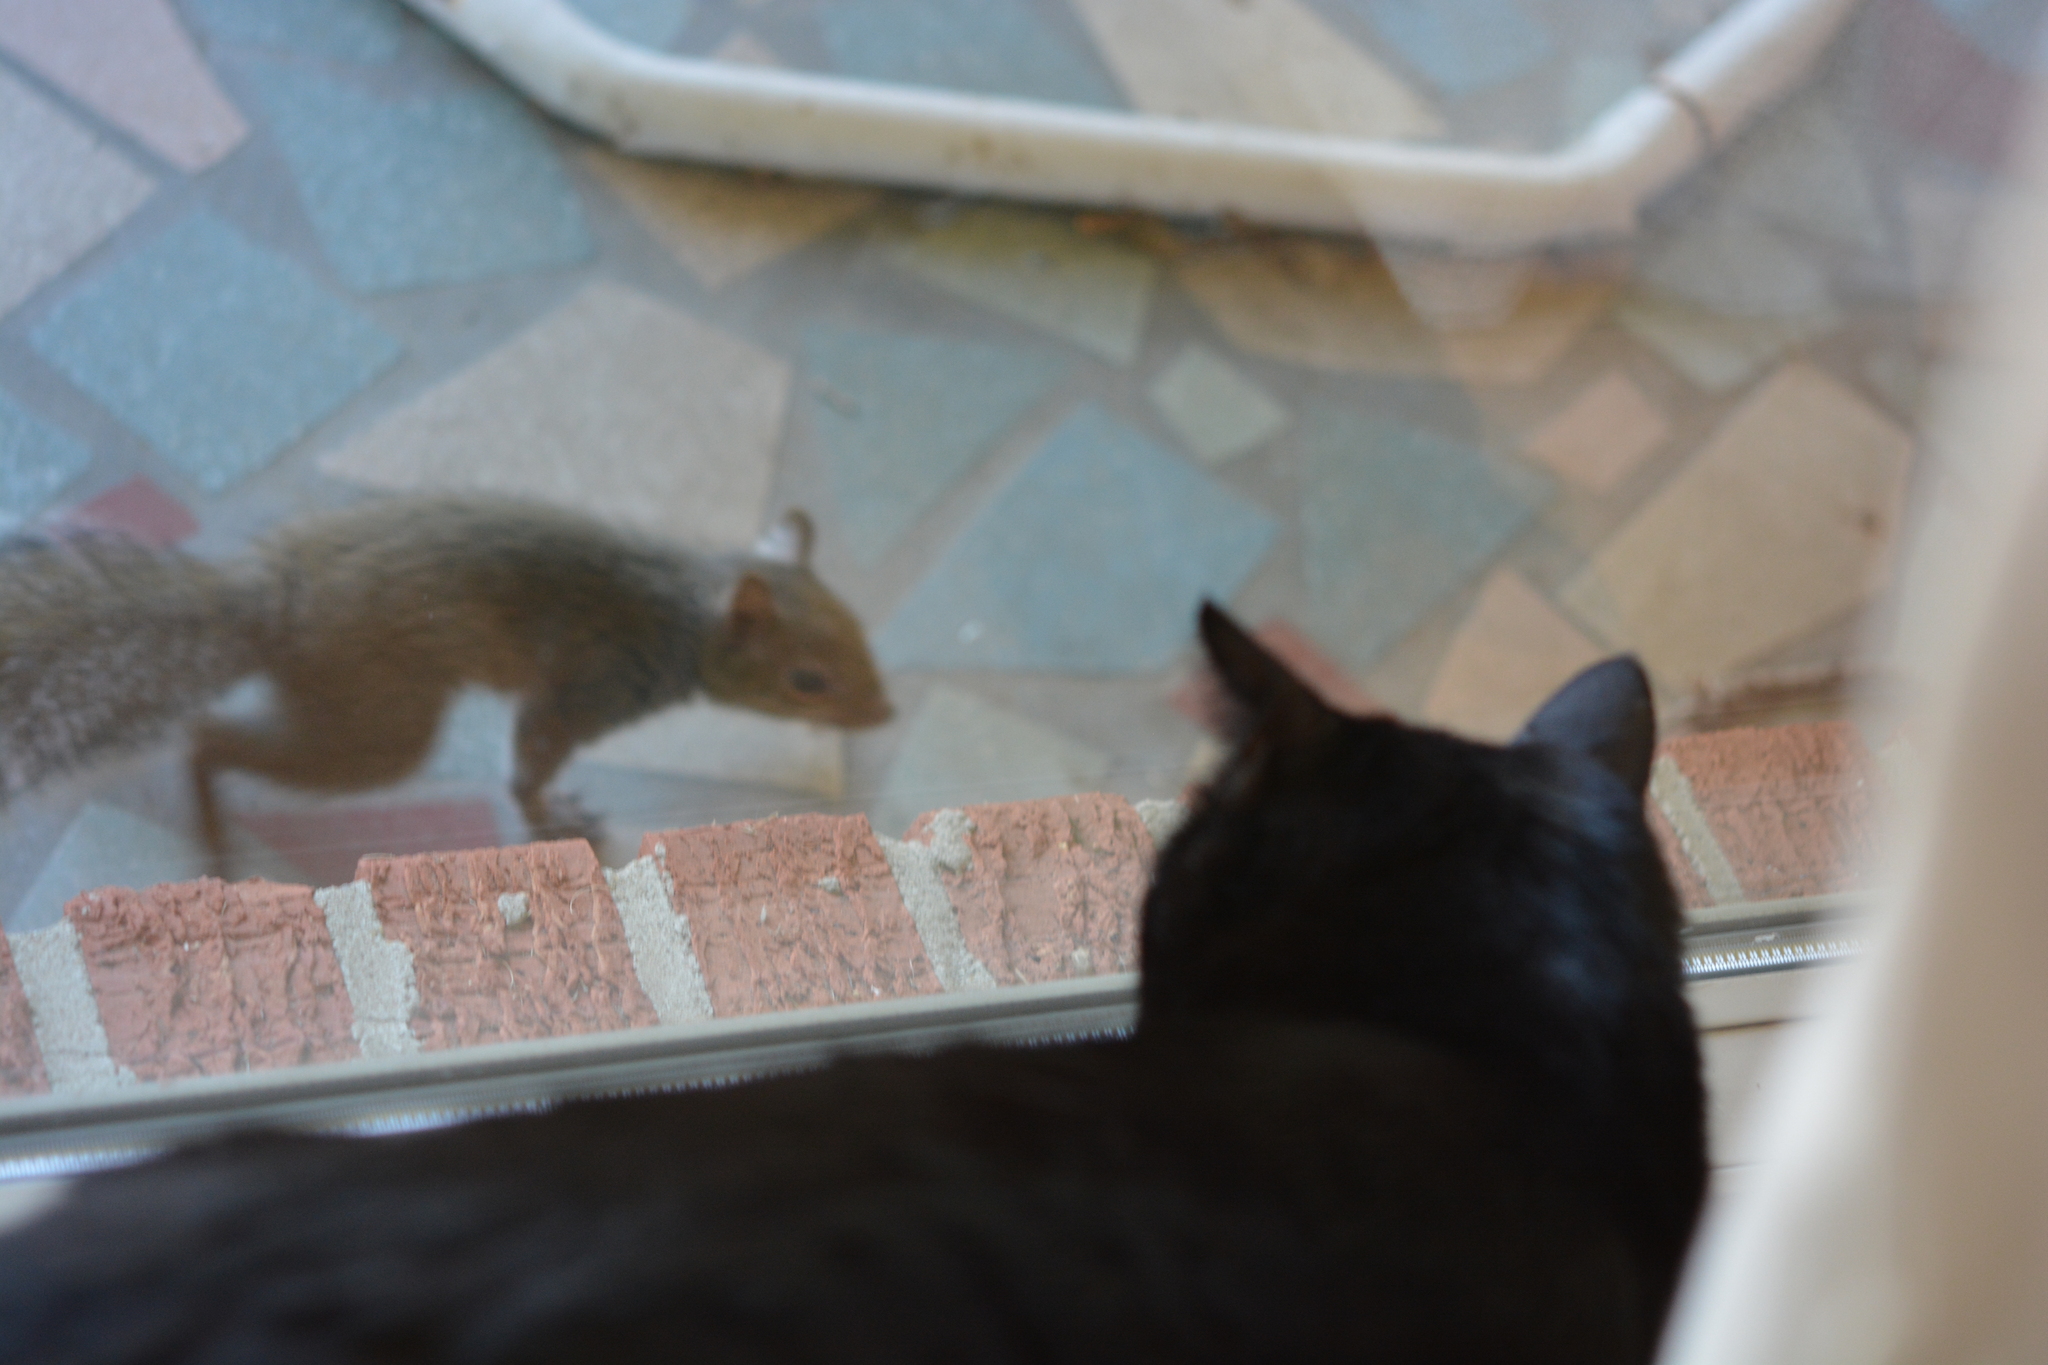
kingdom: Animalia
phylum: Chordata
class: Mammalia
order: Rodentia
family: Sciuridae
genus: Sciurus
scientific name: Sciurus carolinensis
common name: Eastern gray squirrel
